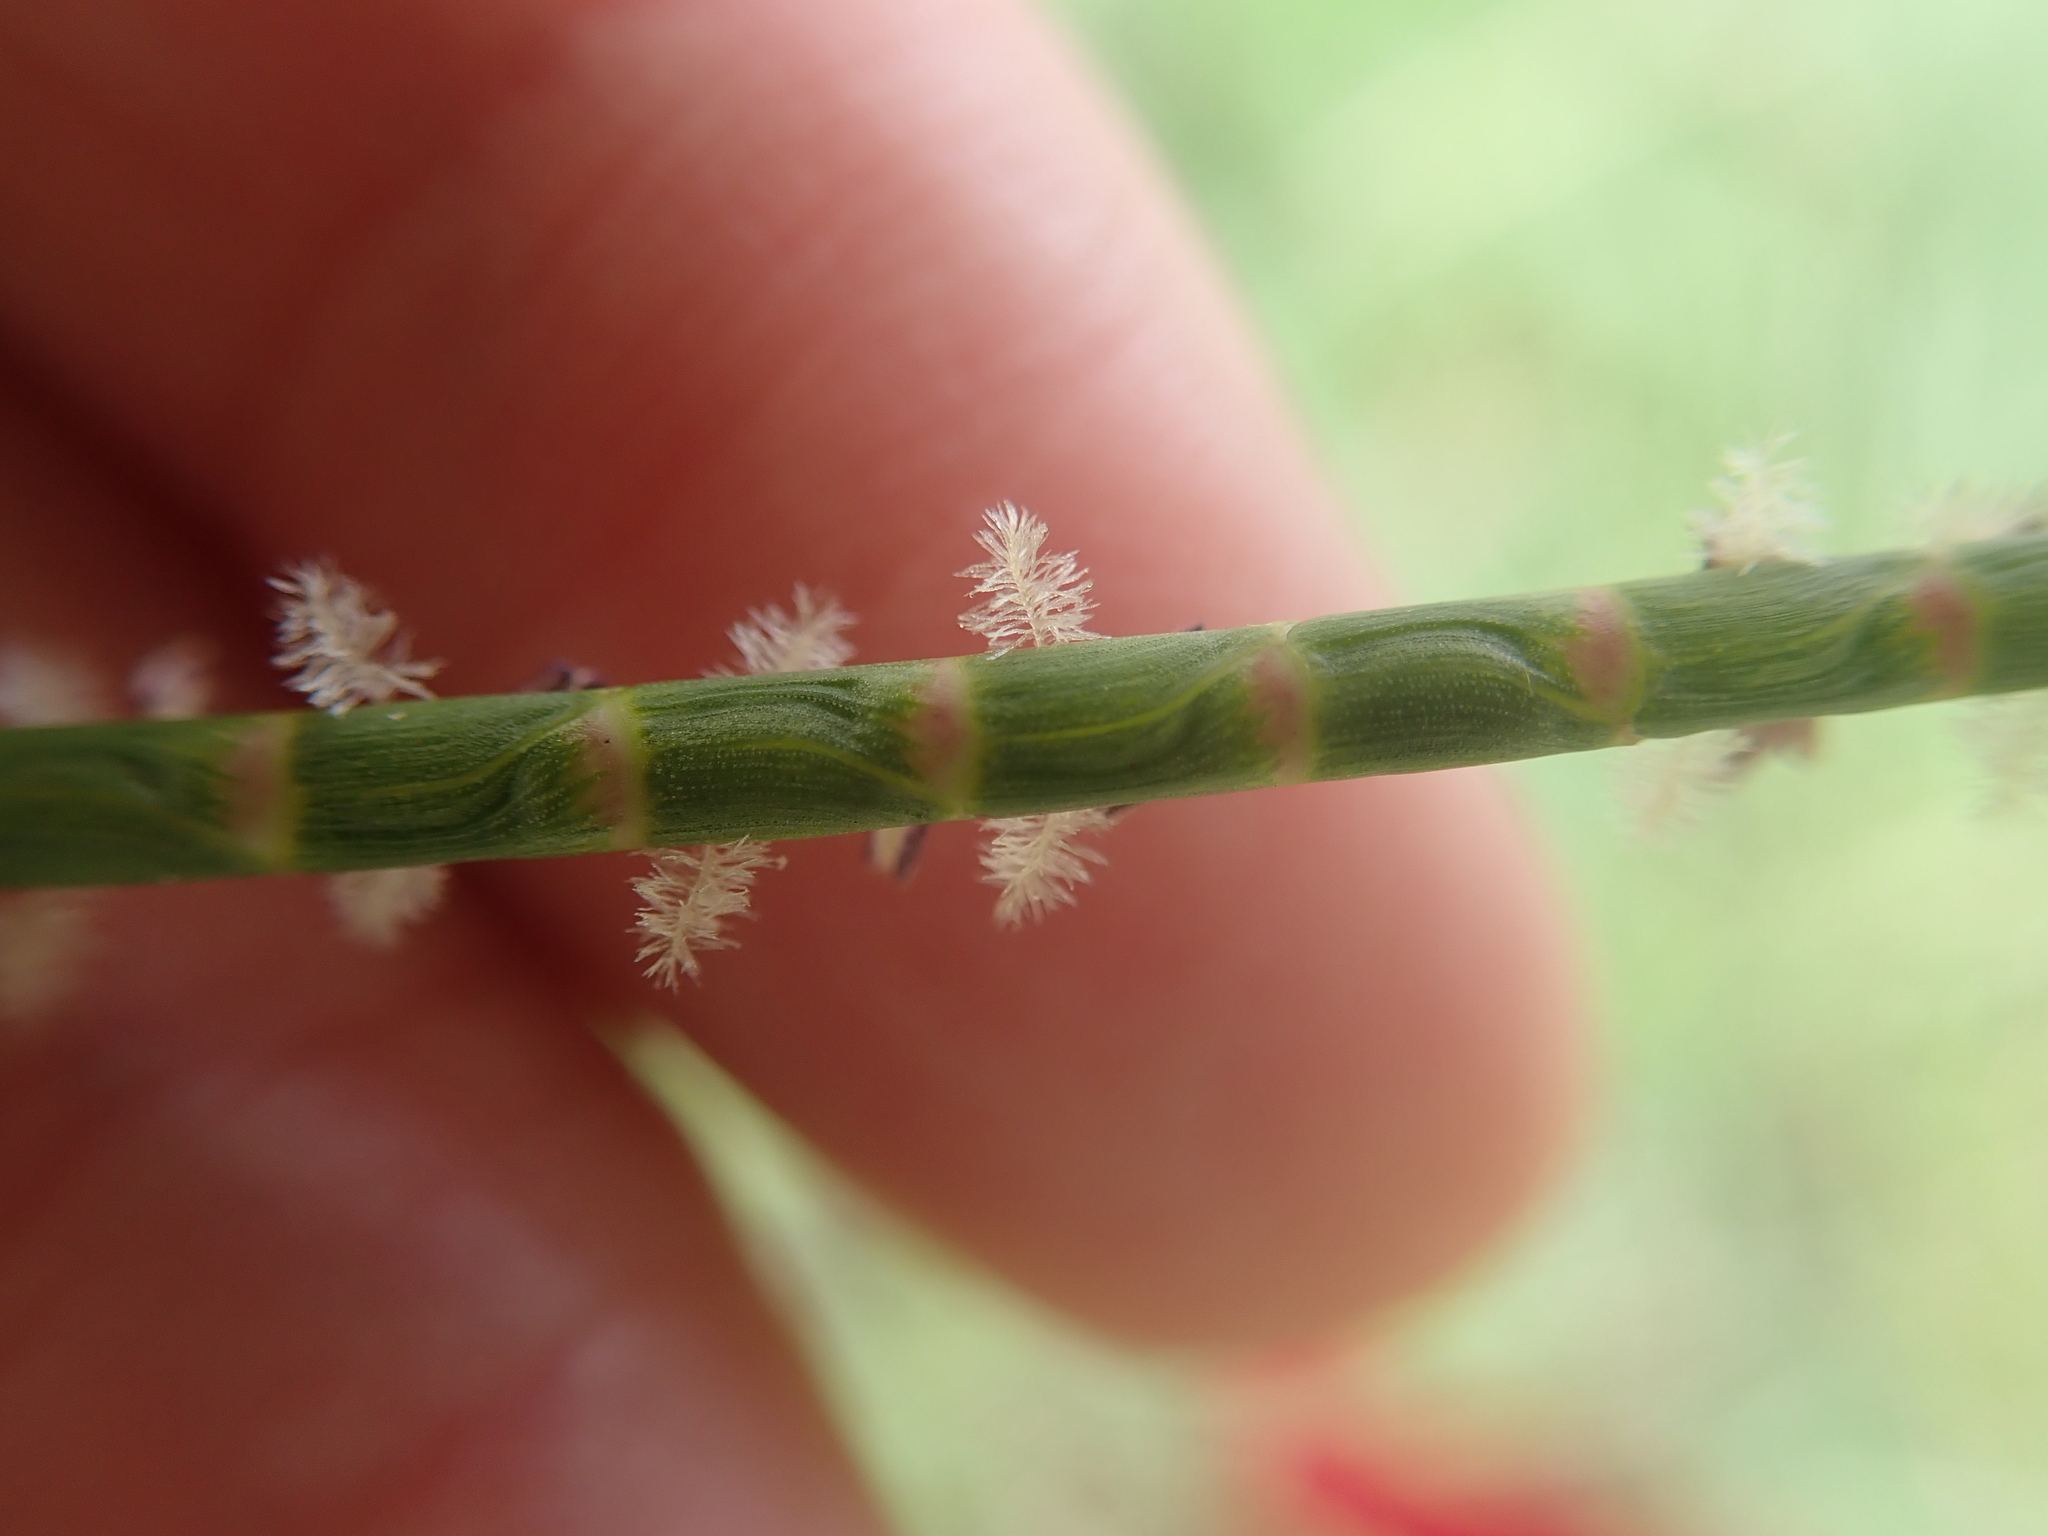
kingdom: Plantae
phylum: Tracheophyta
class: Liliopsida
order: Poales
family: Poaceae
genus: Mnesithea
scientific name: Mnesithea laevis
